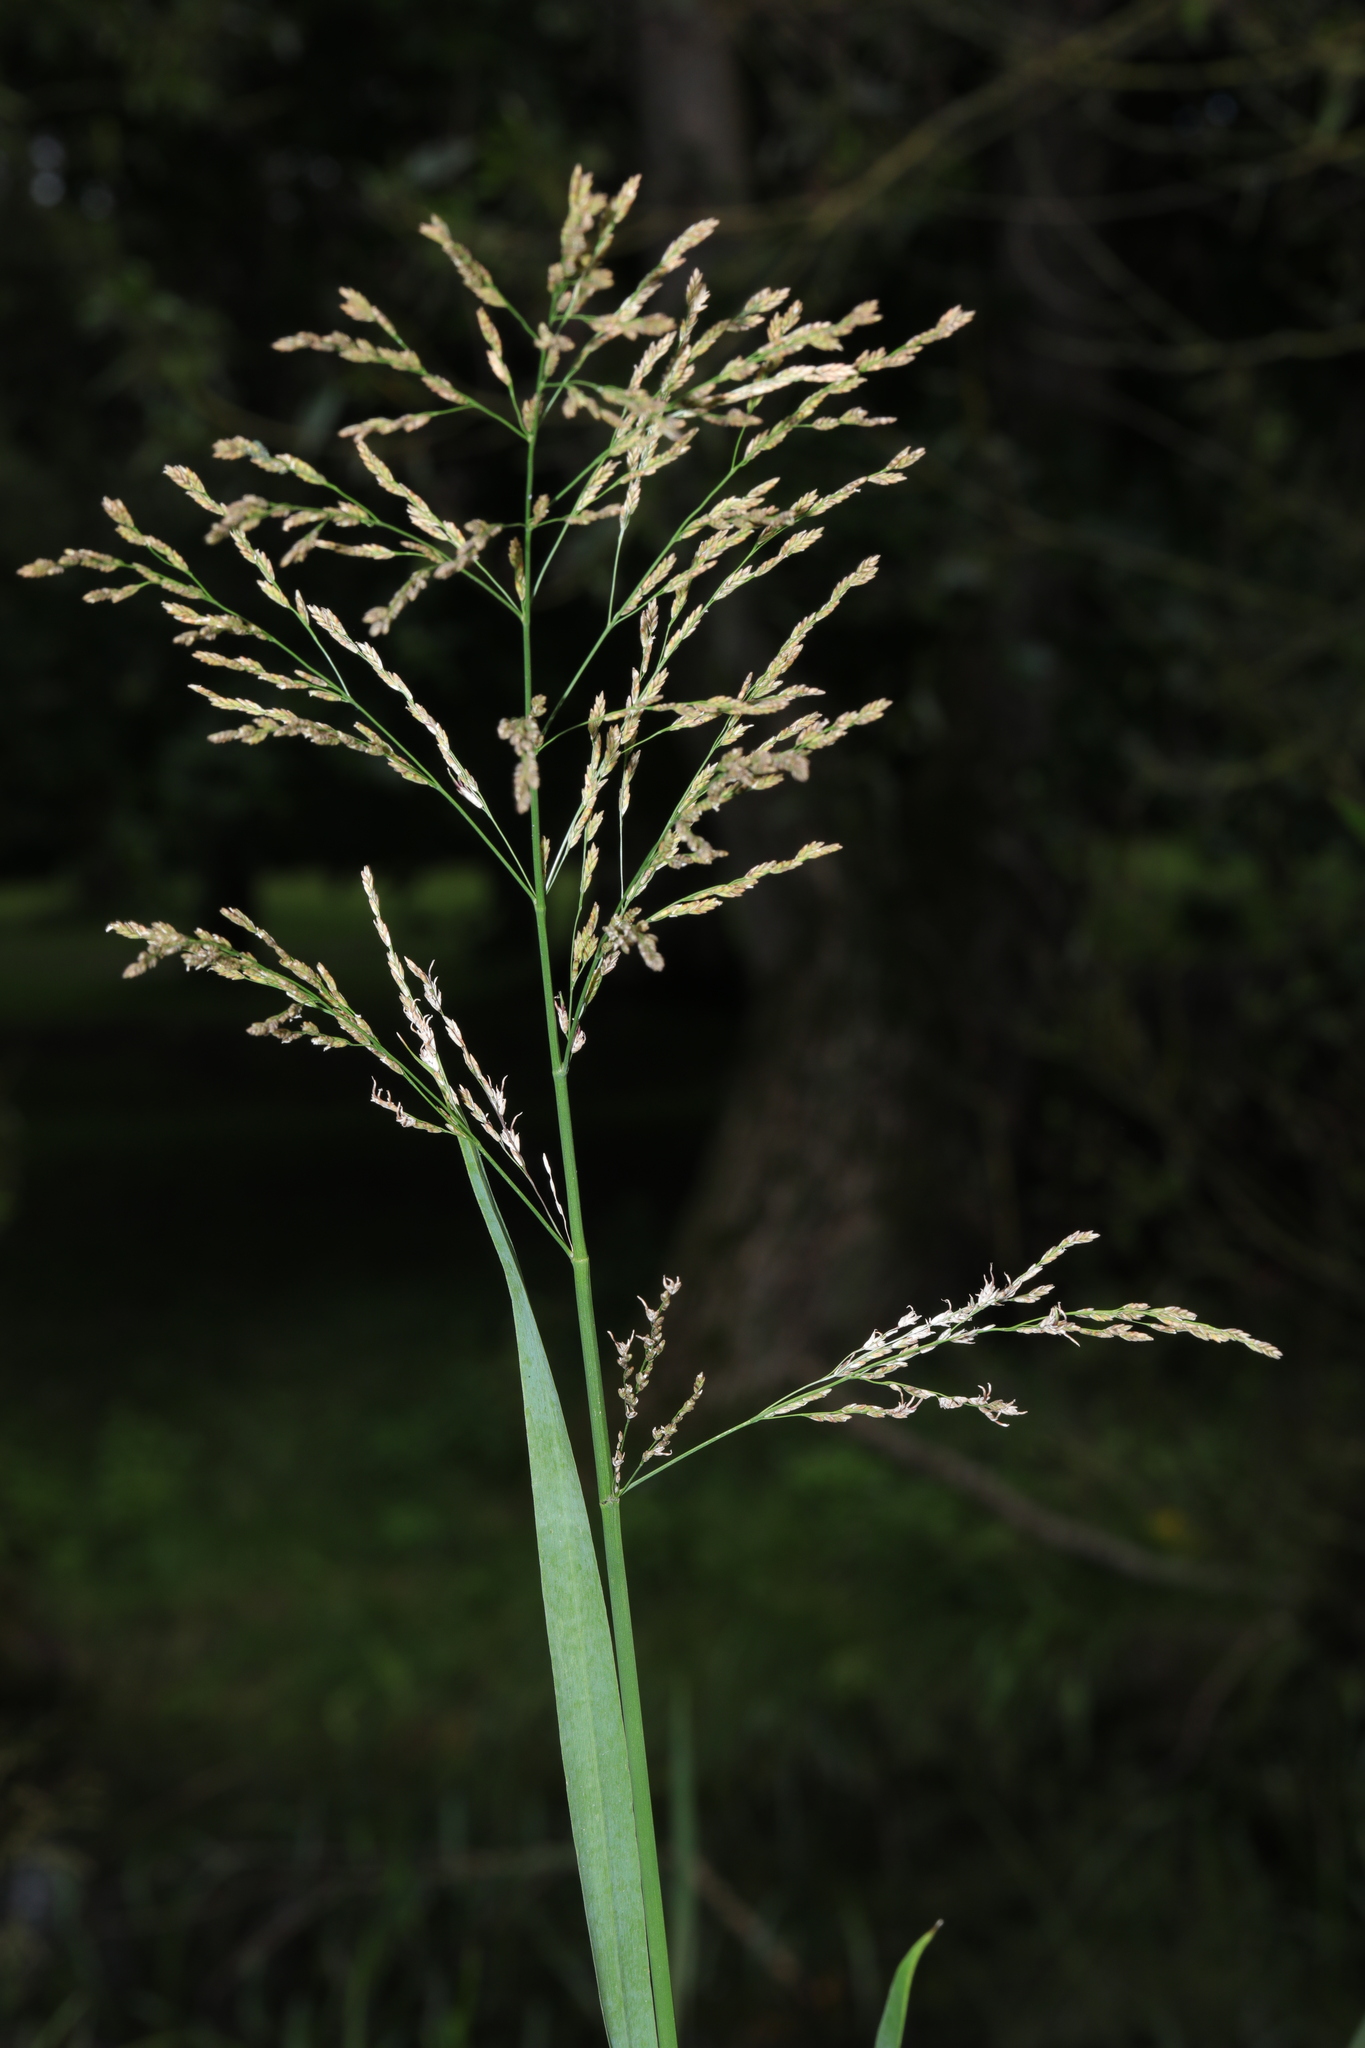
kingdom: Plantae
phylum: Tracheophyta
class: Liliopsida
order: Poales
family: Poaceae
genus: Glyceria
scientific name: Glyceria maxima
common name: Reed mannagrass
